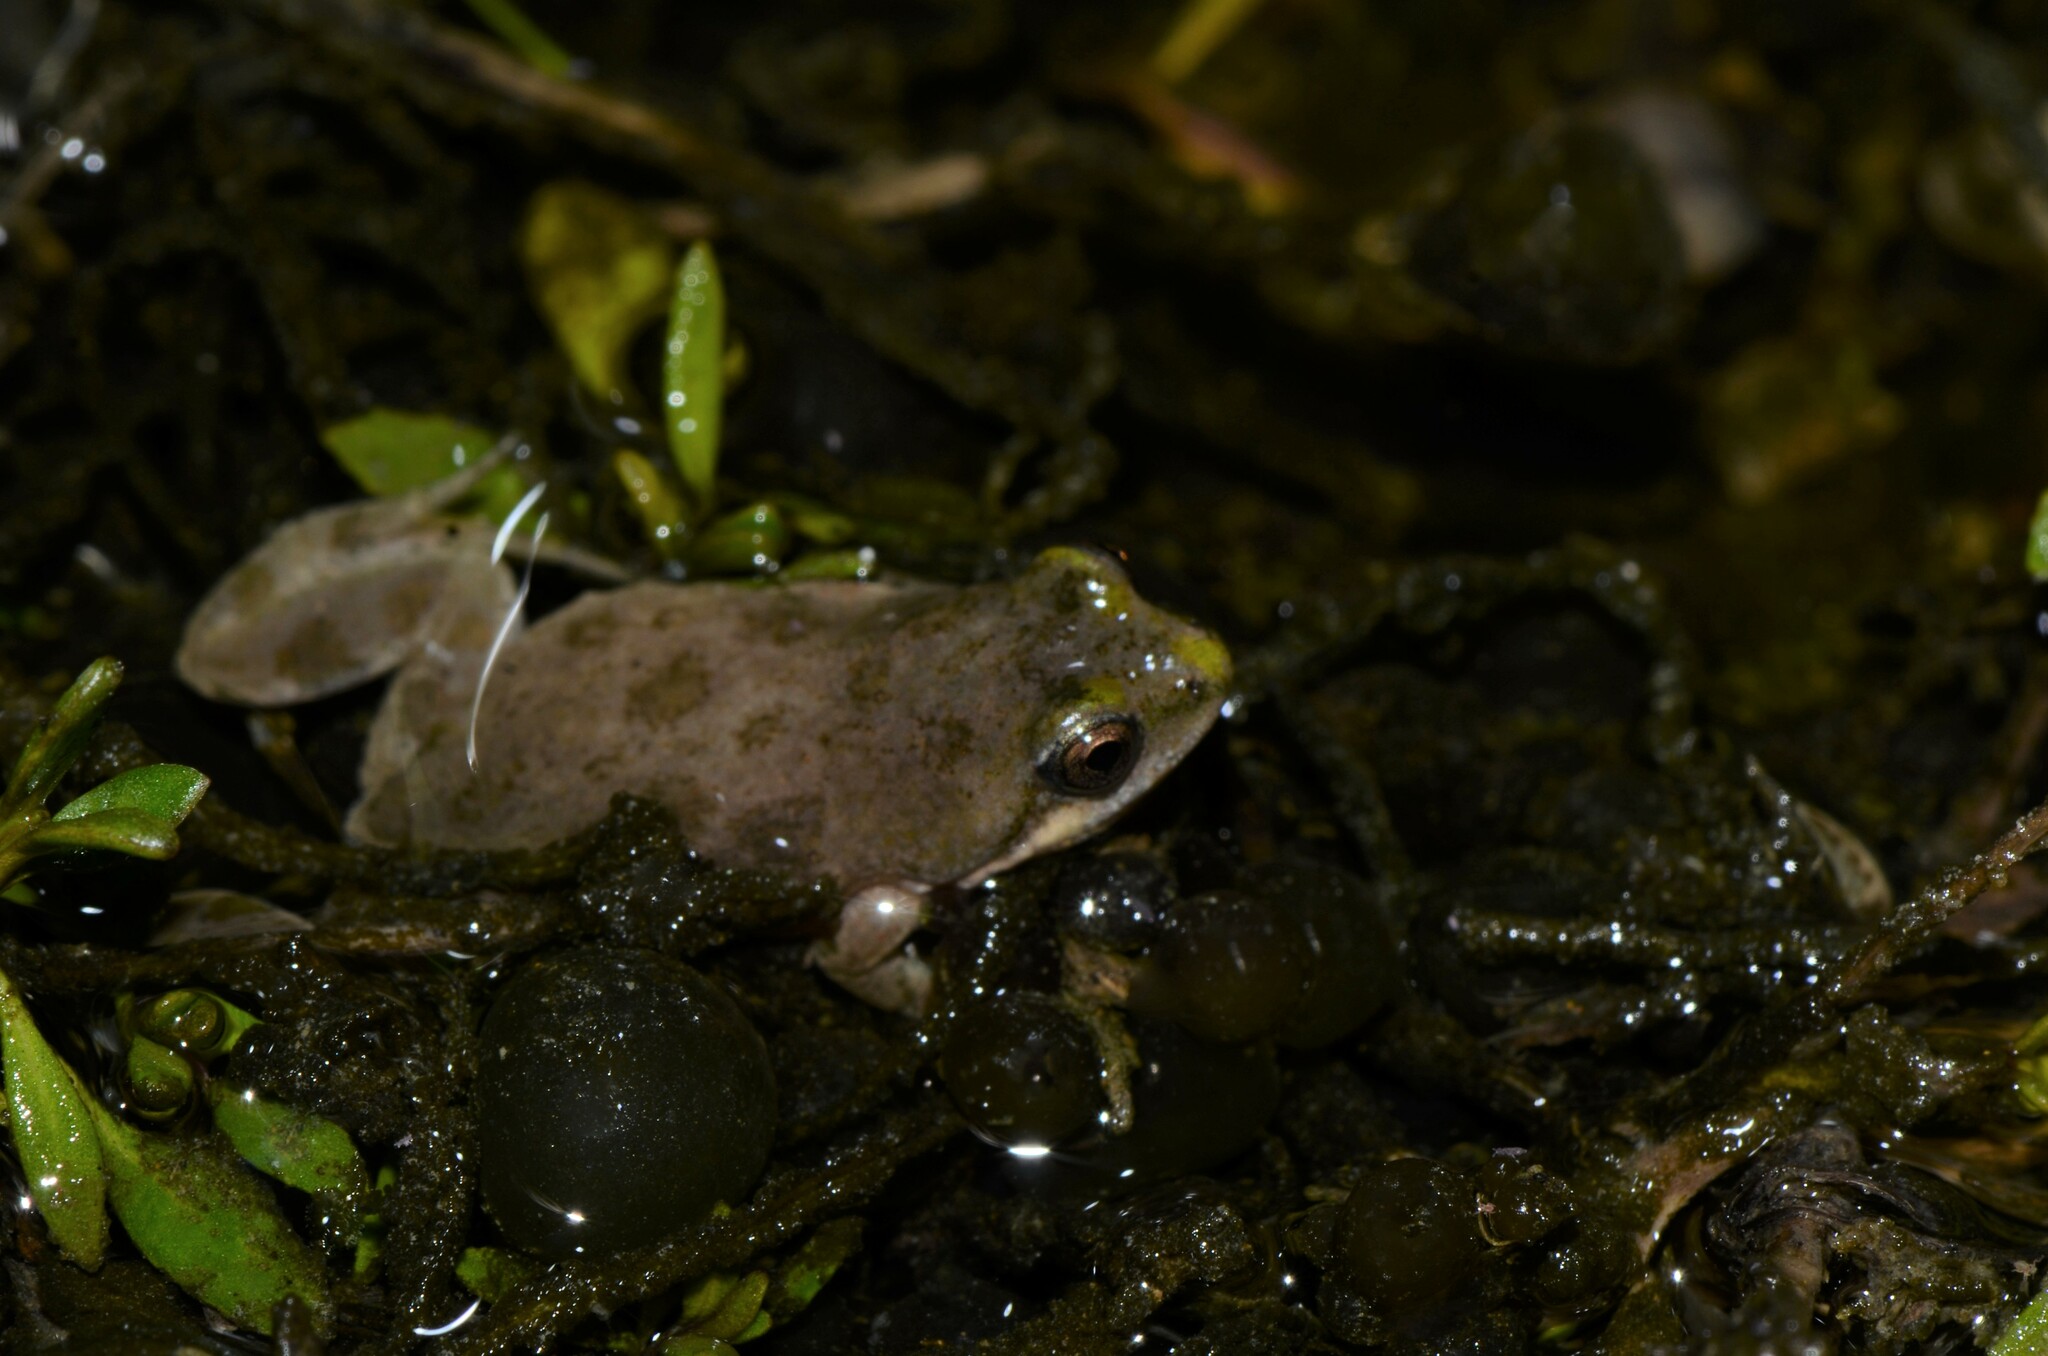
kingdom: Animalia
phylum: Chordata
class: Amphibia
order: Anura
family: Pyxicephalidae
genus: Cacosternum
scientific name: Cacosternum aggestum
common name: Klipheuwel dainty frog
